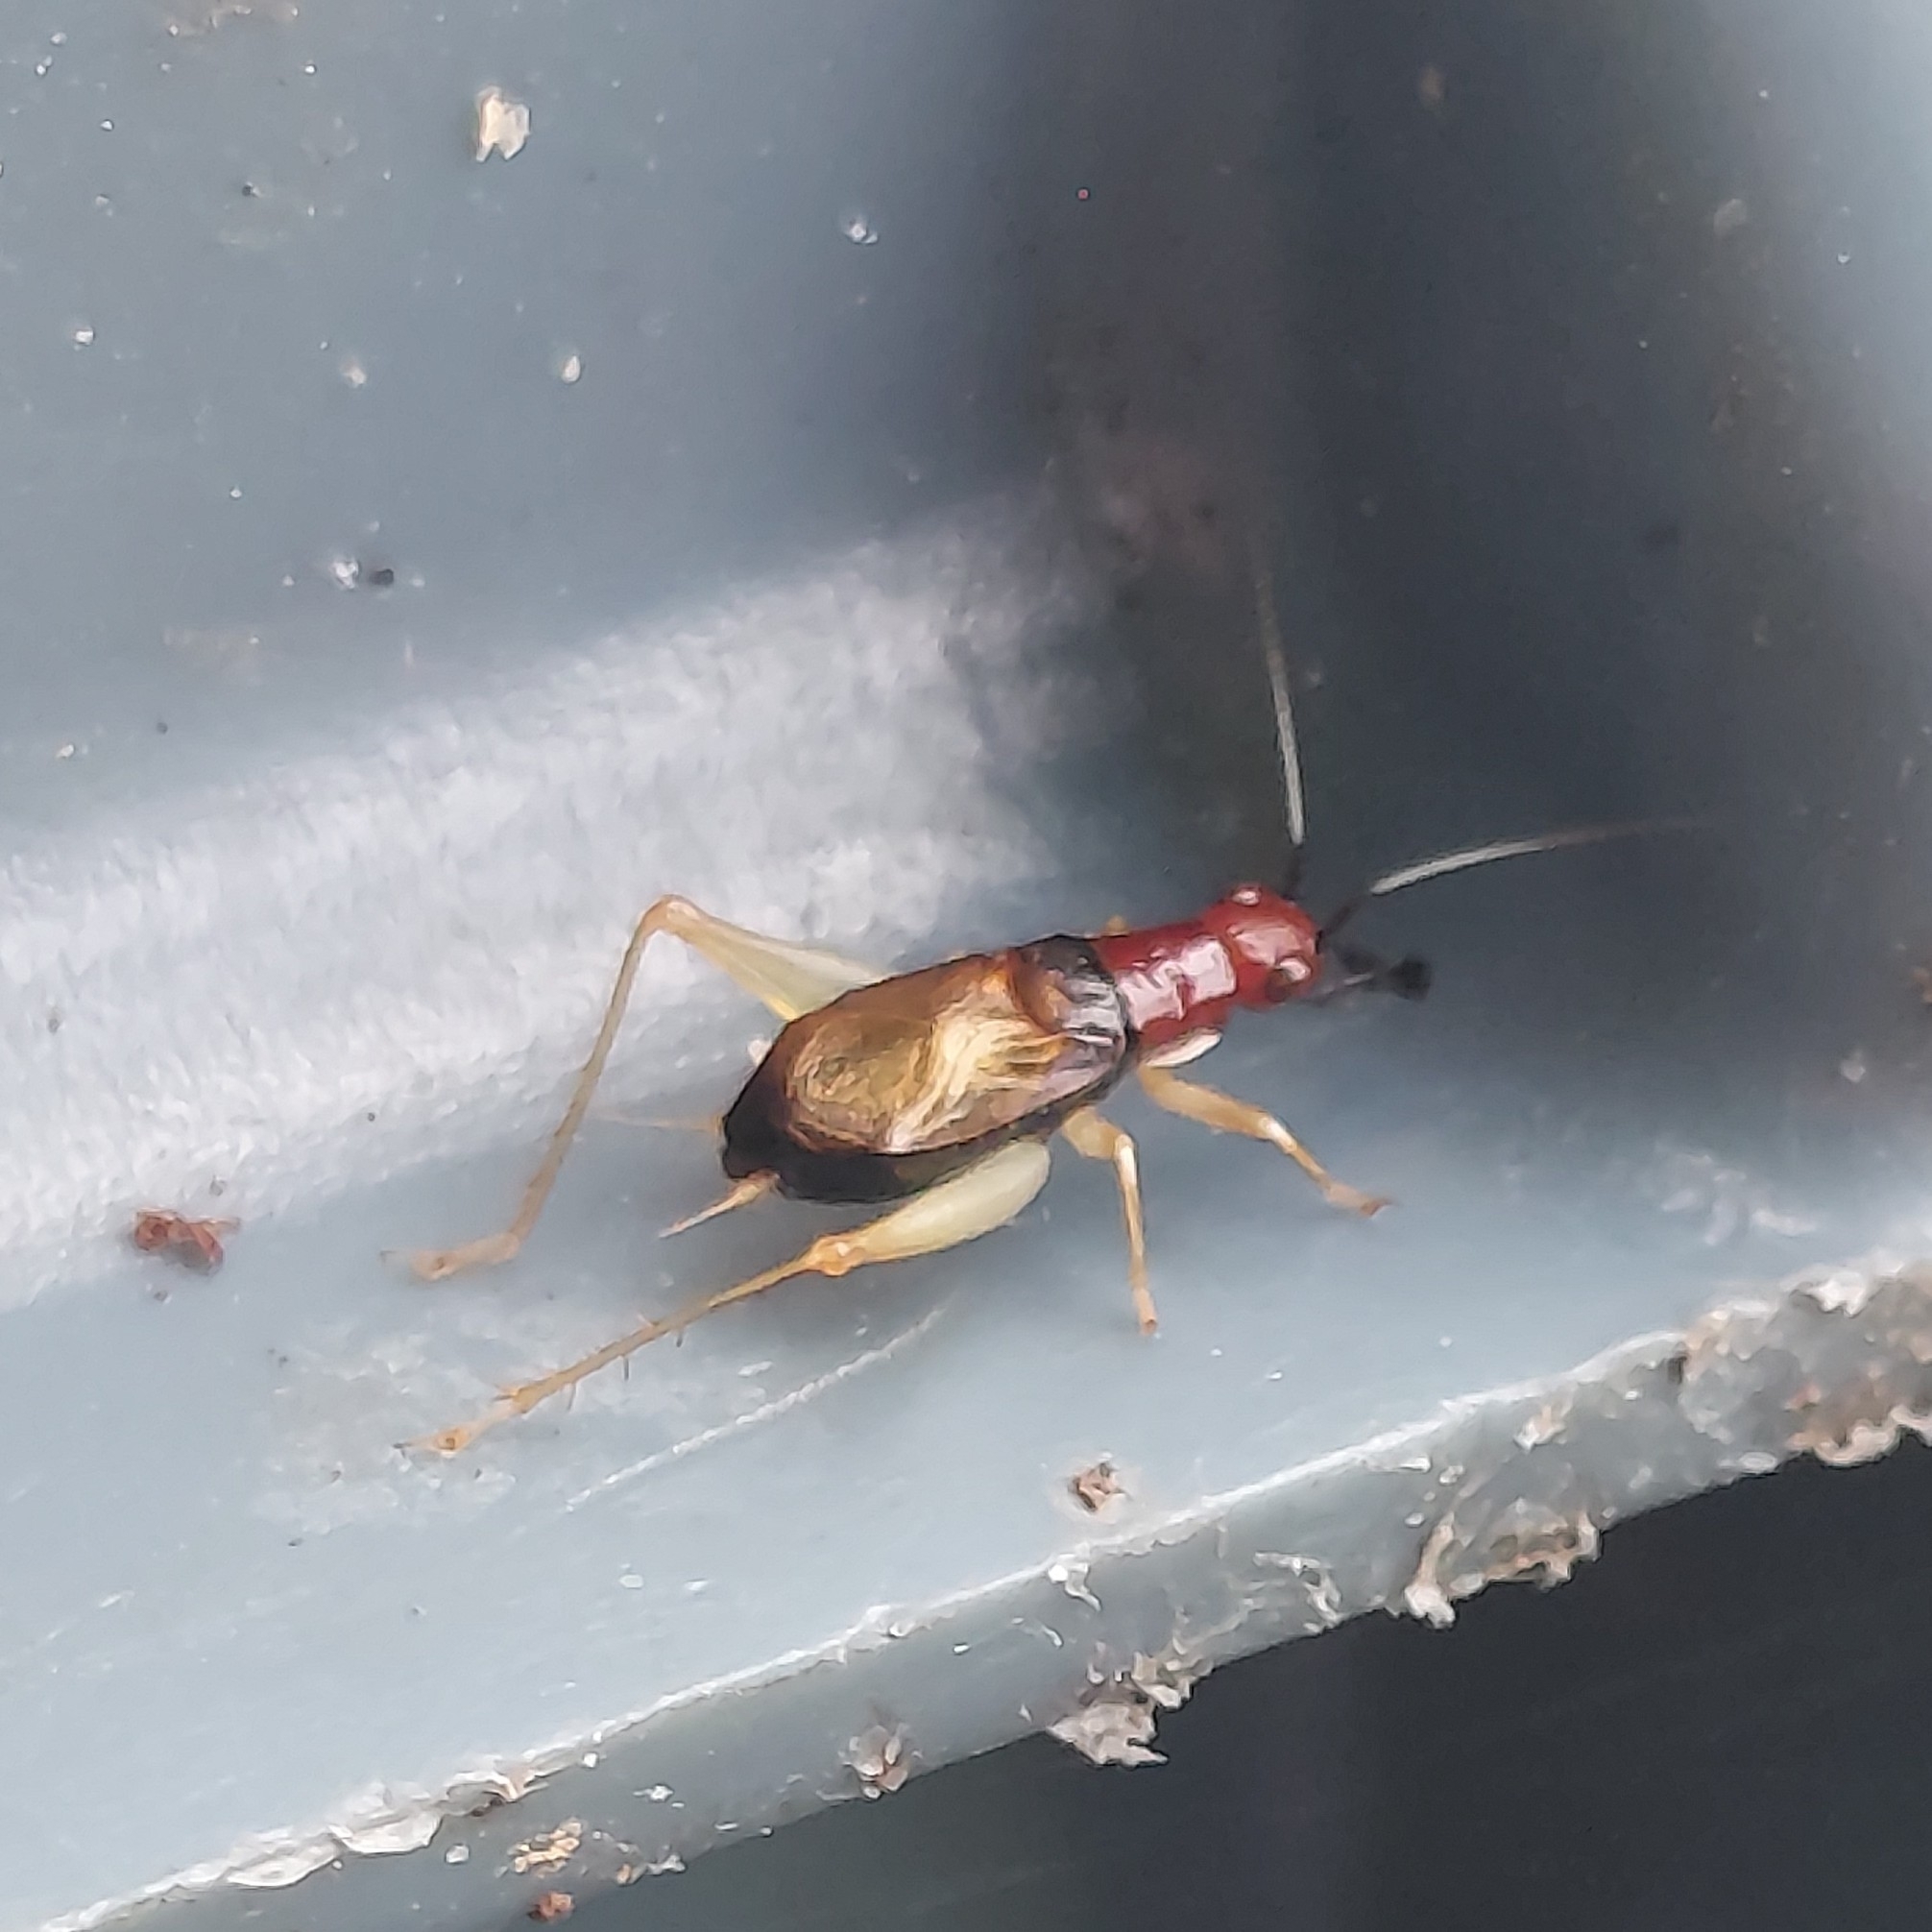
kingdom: Animalia
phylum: Arthropoda
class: Insecta
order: Orthoptera
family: Trigonidiidae
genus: Phyllopalpus
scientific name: Phyllopalpus pulchellus
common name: Handsome trig
